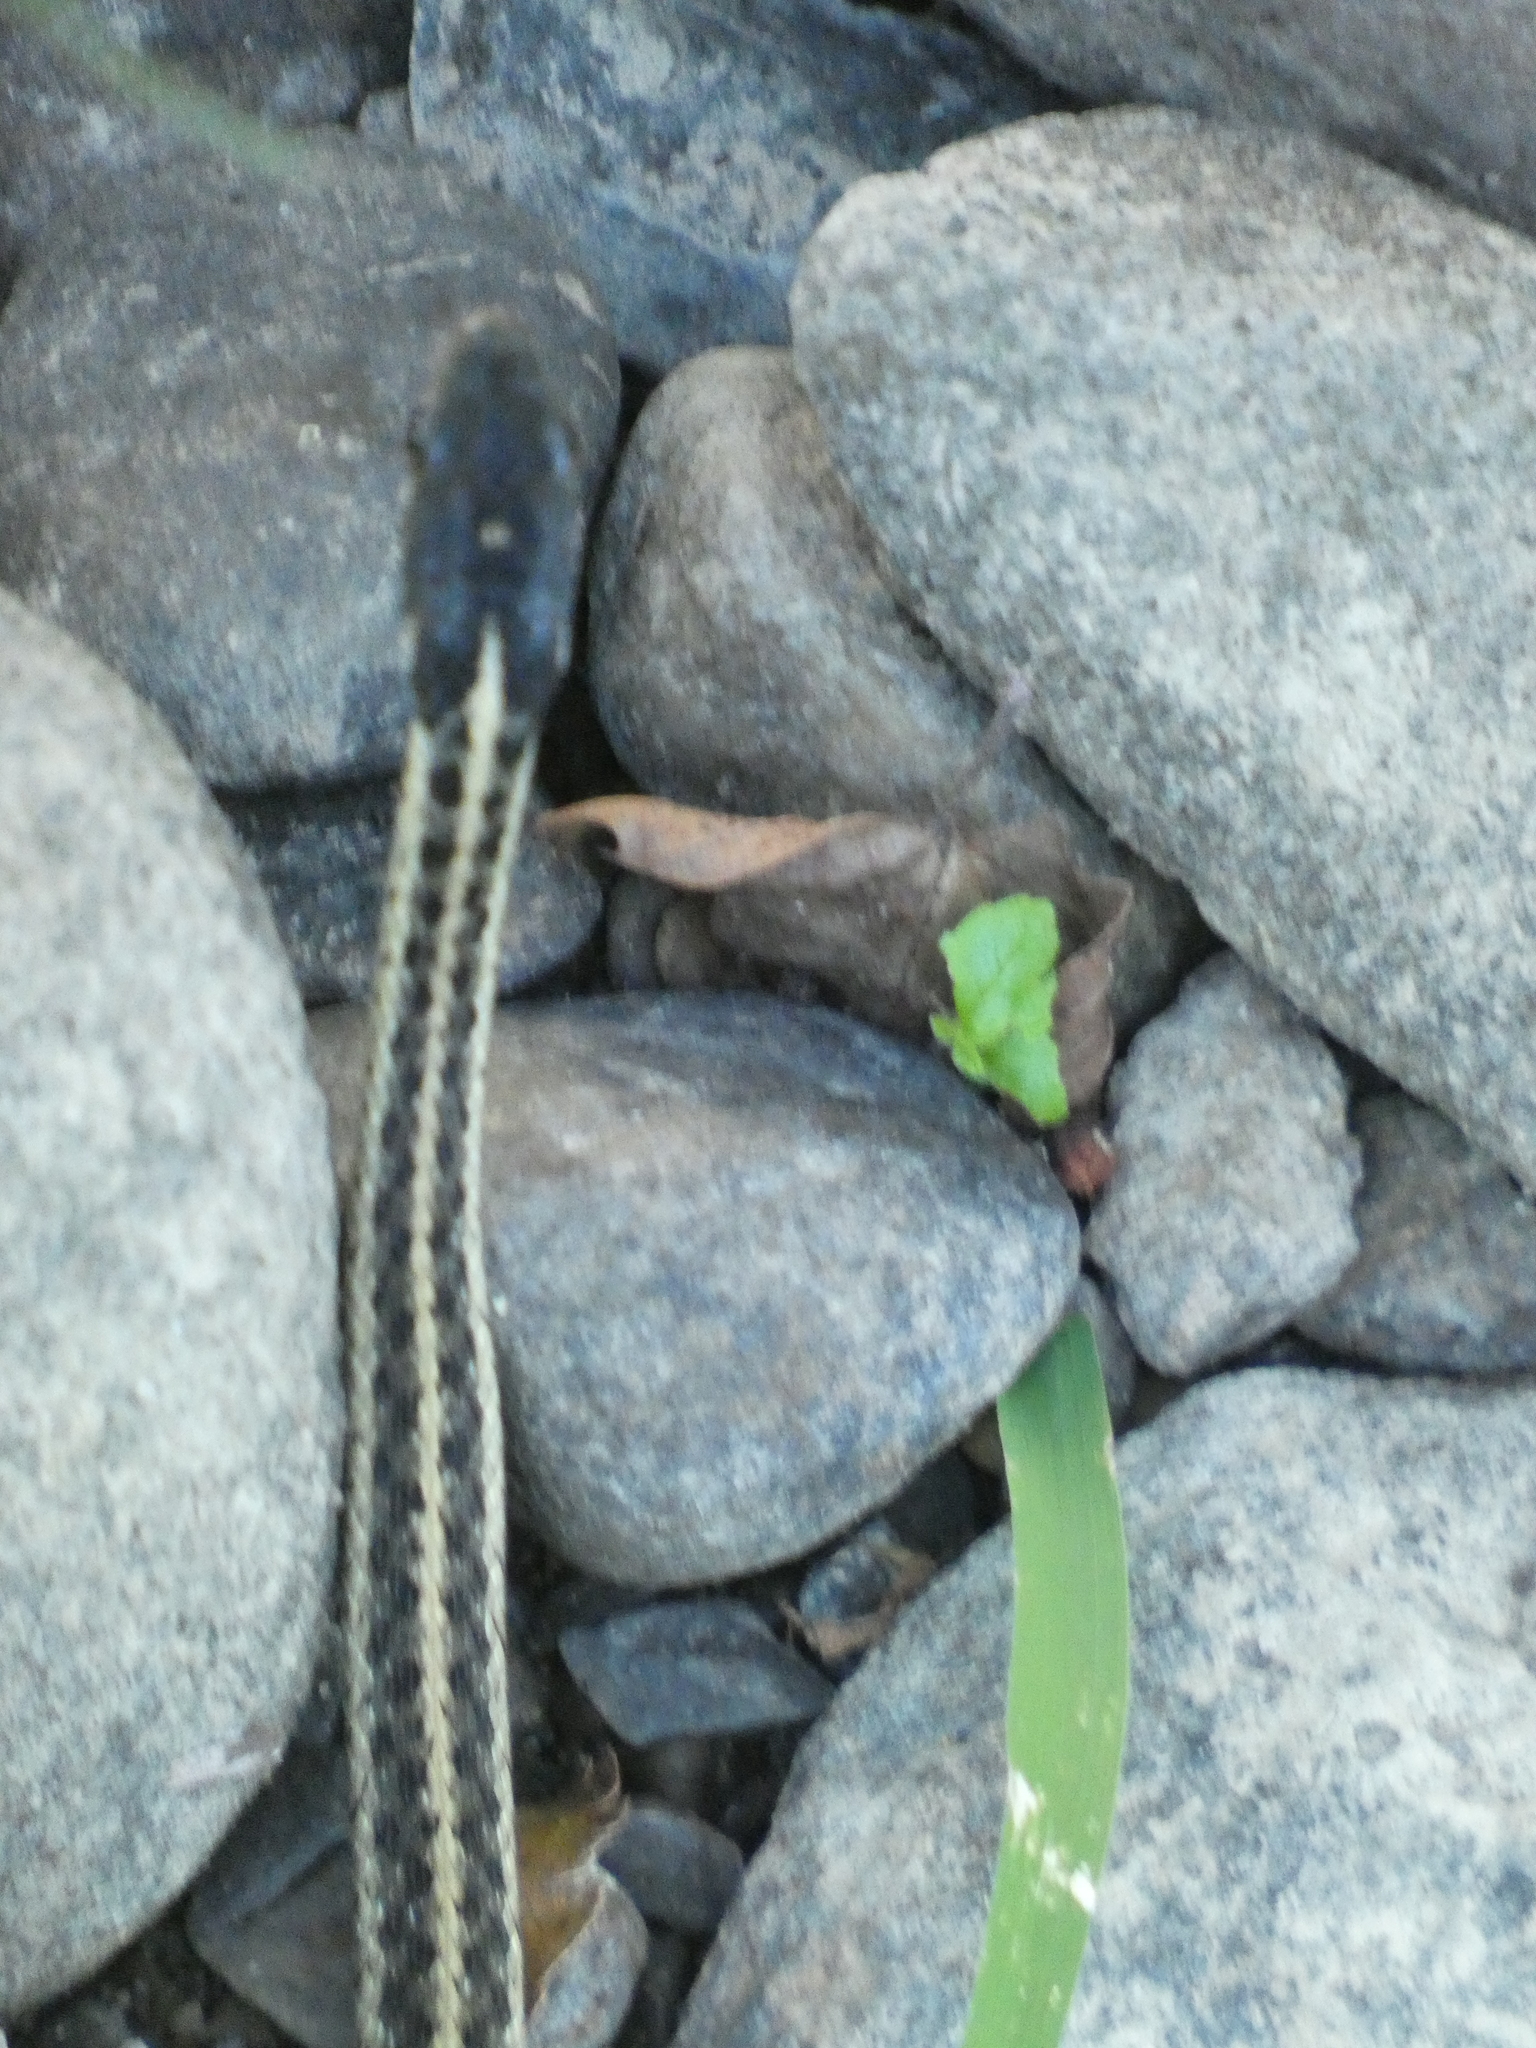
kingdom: Animalia
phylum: Chordata
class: Squamata
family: Colubridae
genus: Thamnophis
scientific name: Thamnophis sirtalis
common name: Common garter snake
